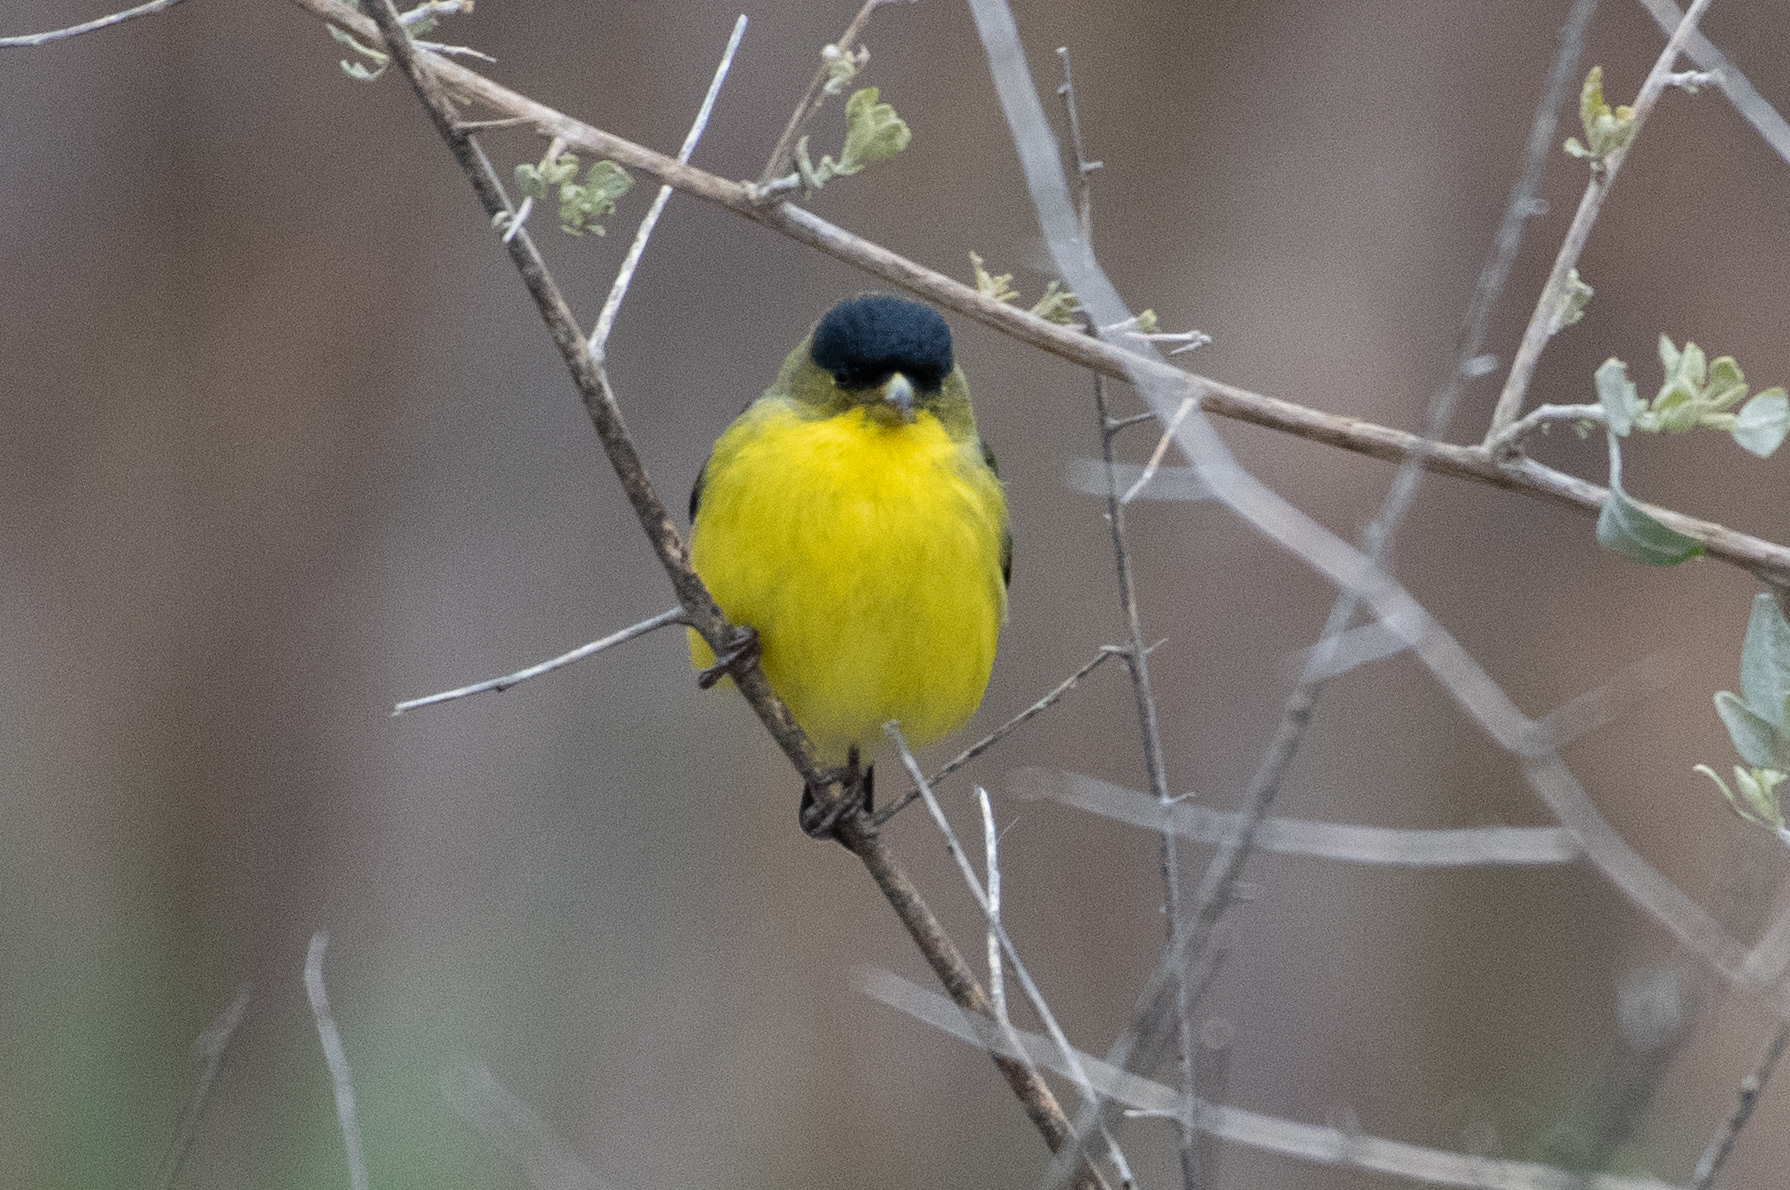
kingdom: Animalia
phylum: Chordata
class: Aves
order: Passeriformes
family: Fringillidae
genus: Spinus
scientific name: Spinus psaltria
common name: Lesser goldfinch
